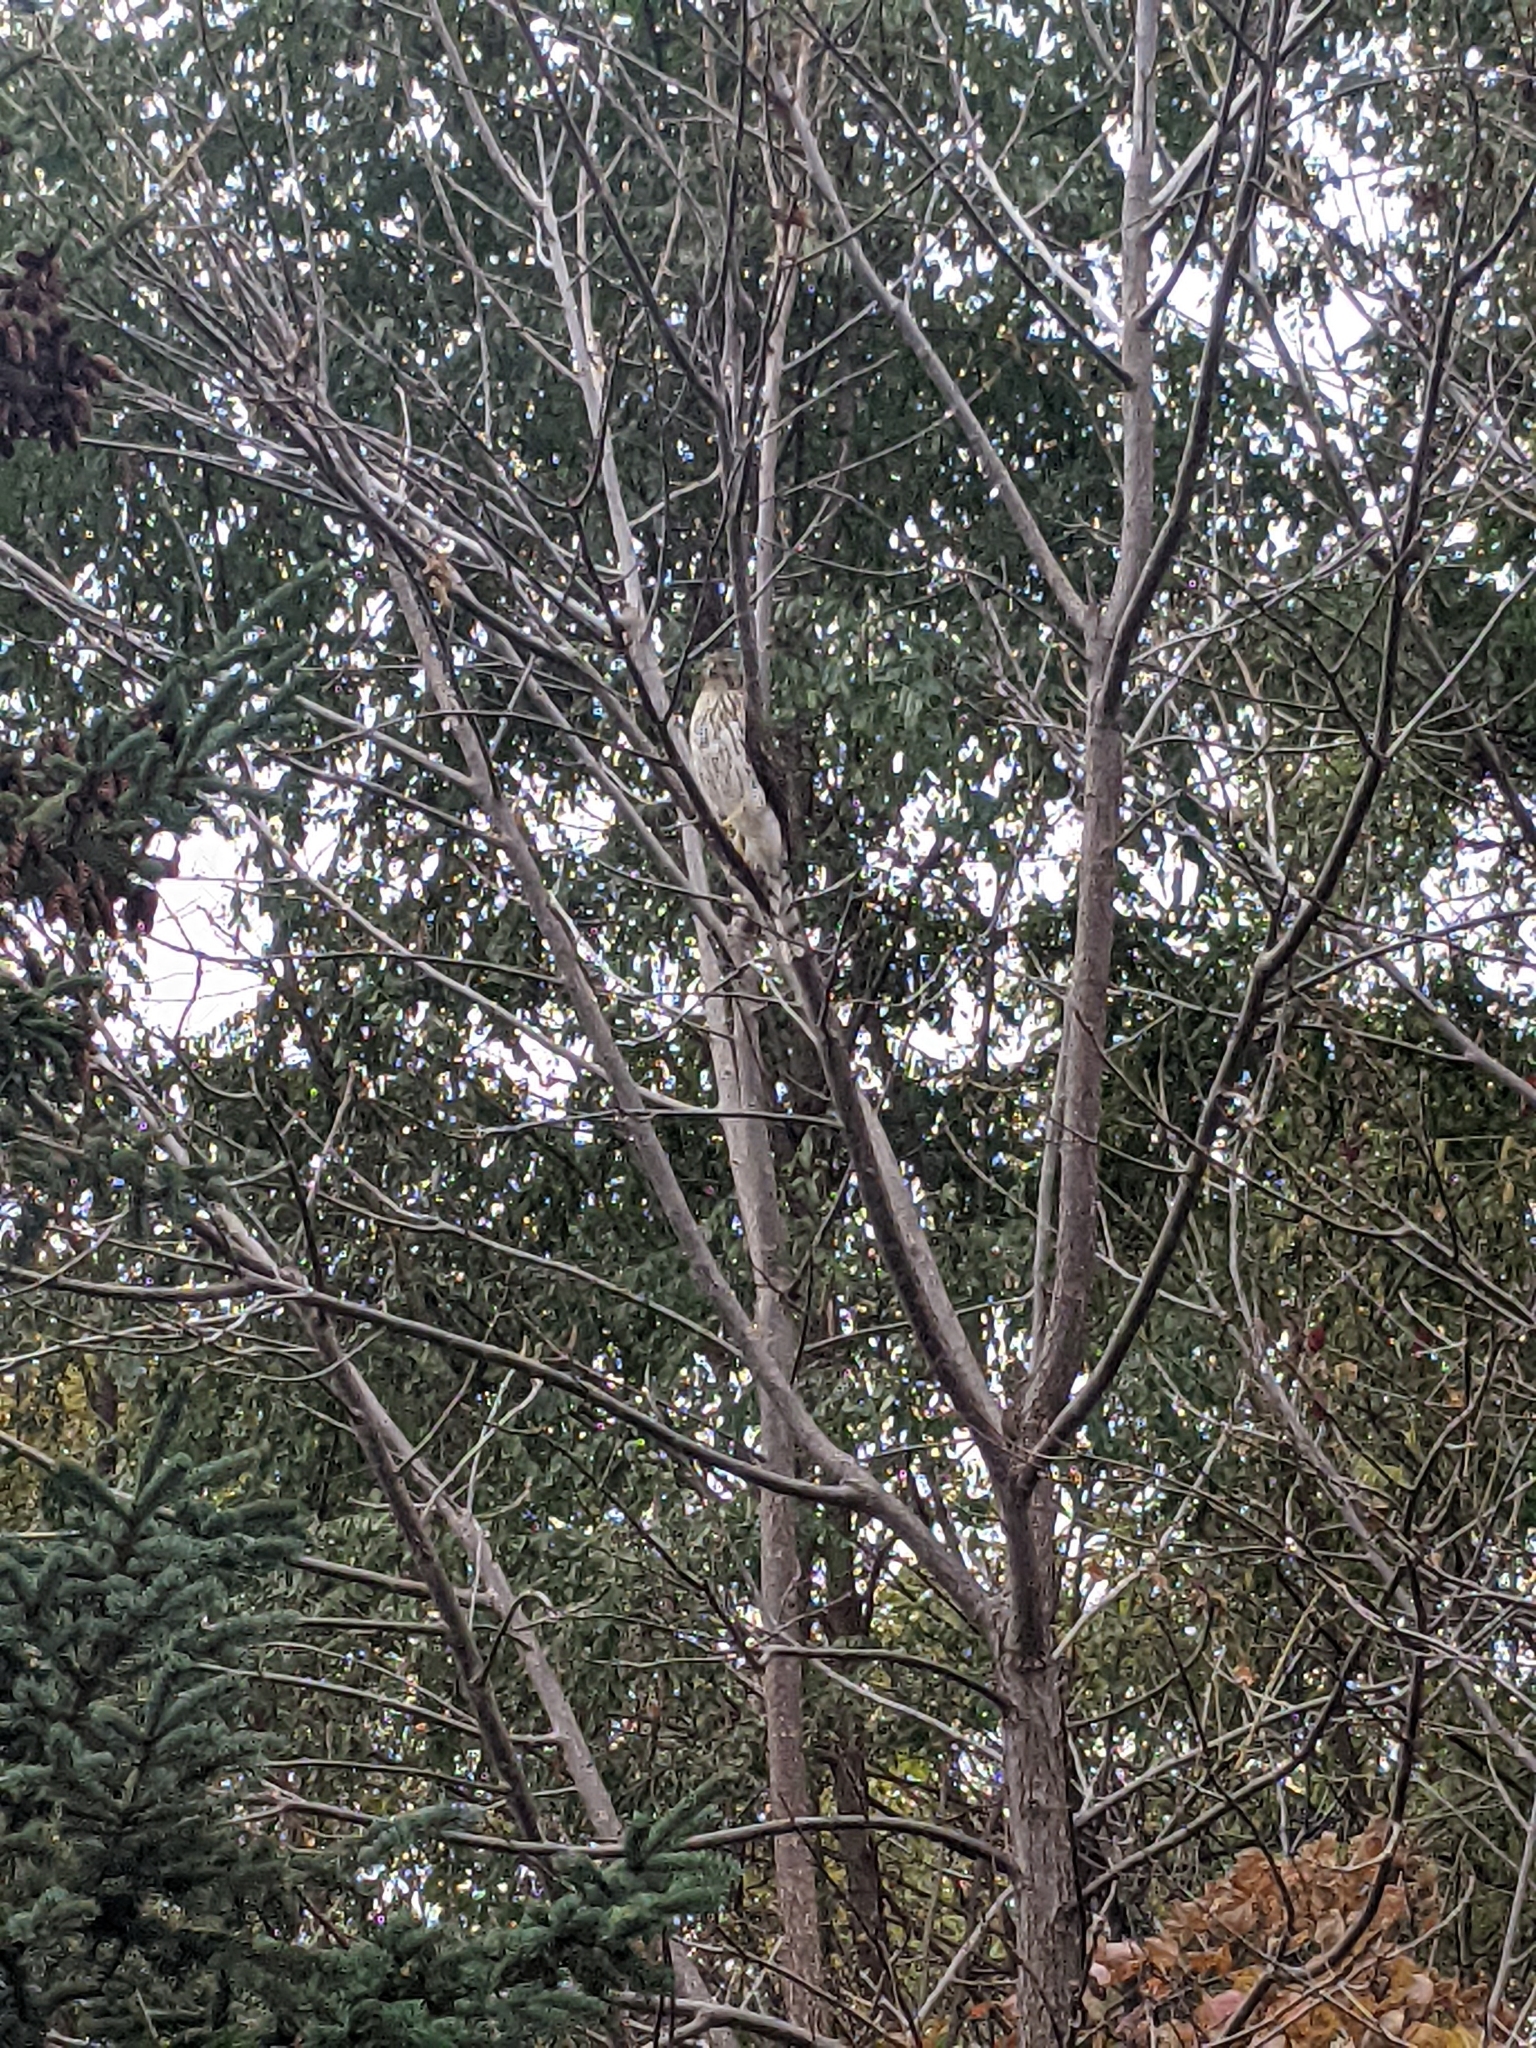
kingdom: Animalia
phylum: Chordata
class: Aves
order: Accipitriformes
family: Accipitridae
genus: Accipiter
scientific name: Accipiter cooperii
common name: Cooper's hawk
